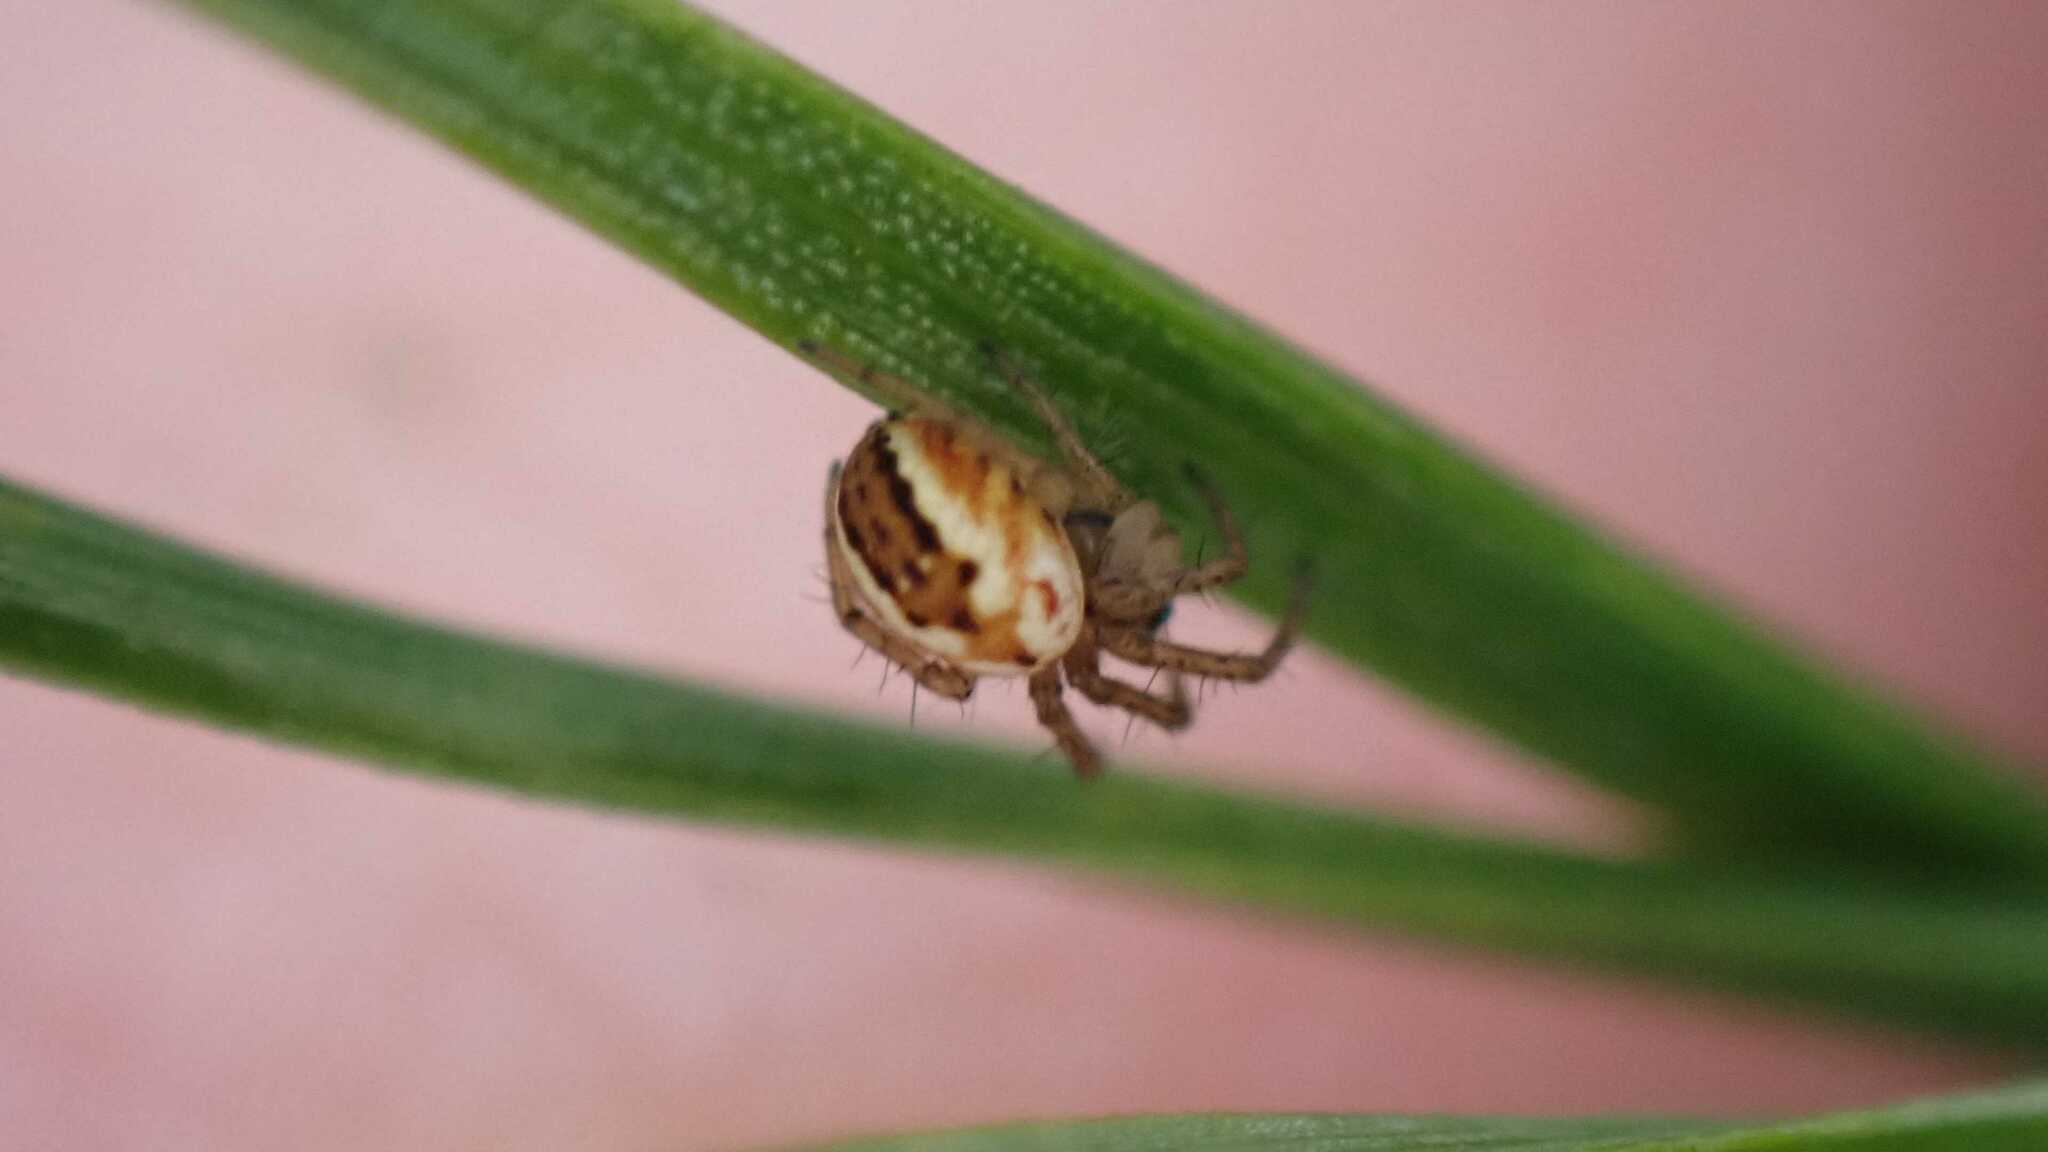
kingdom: Animalia
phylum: Arthropoda
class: Arachnida
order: Araneae
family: Araneidae
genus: Mangora
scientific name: Mangora acalypha
